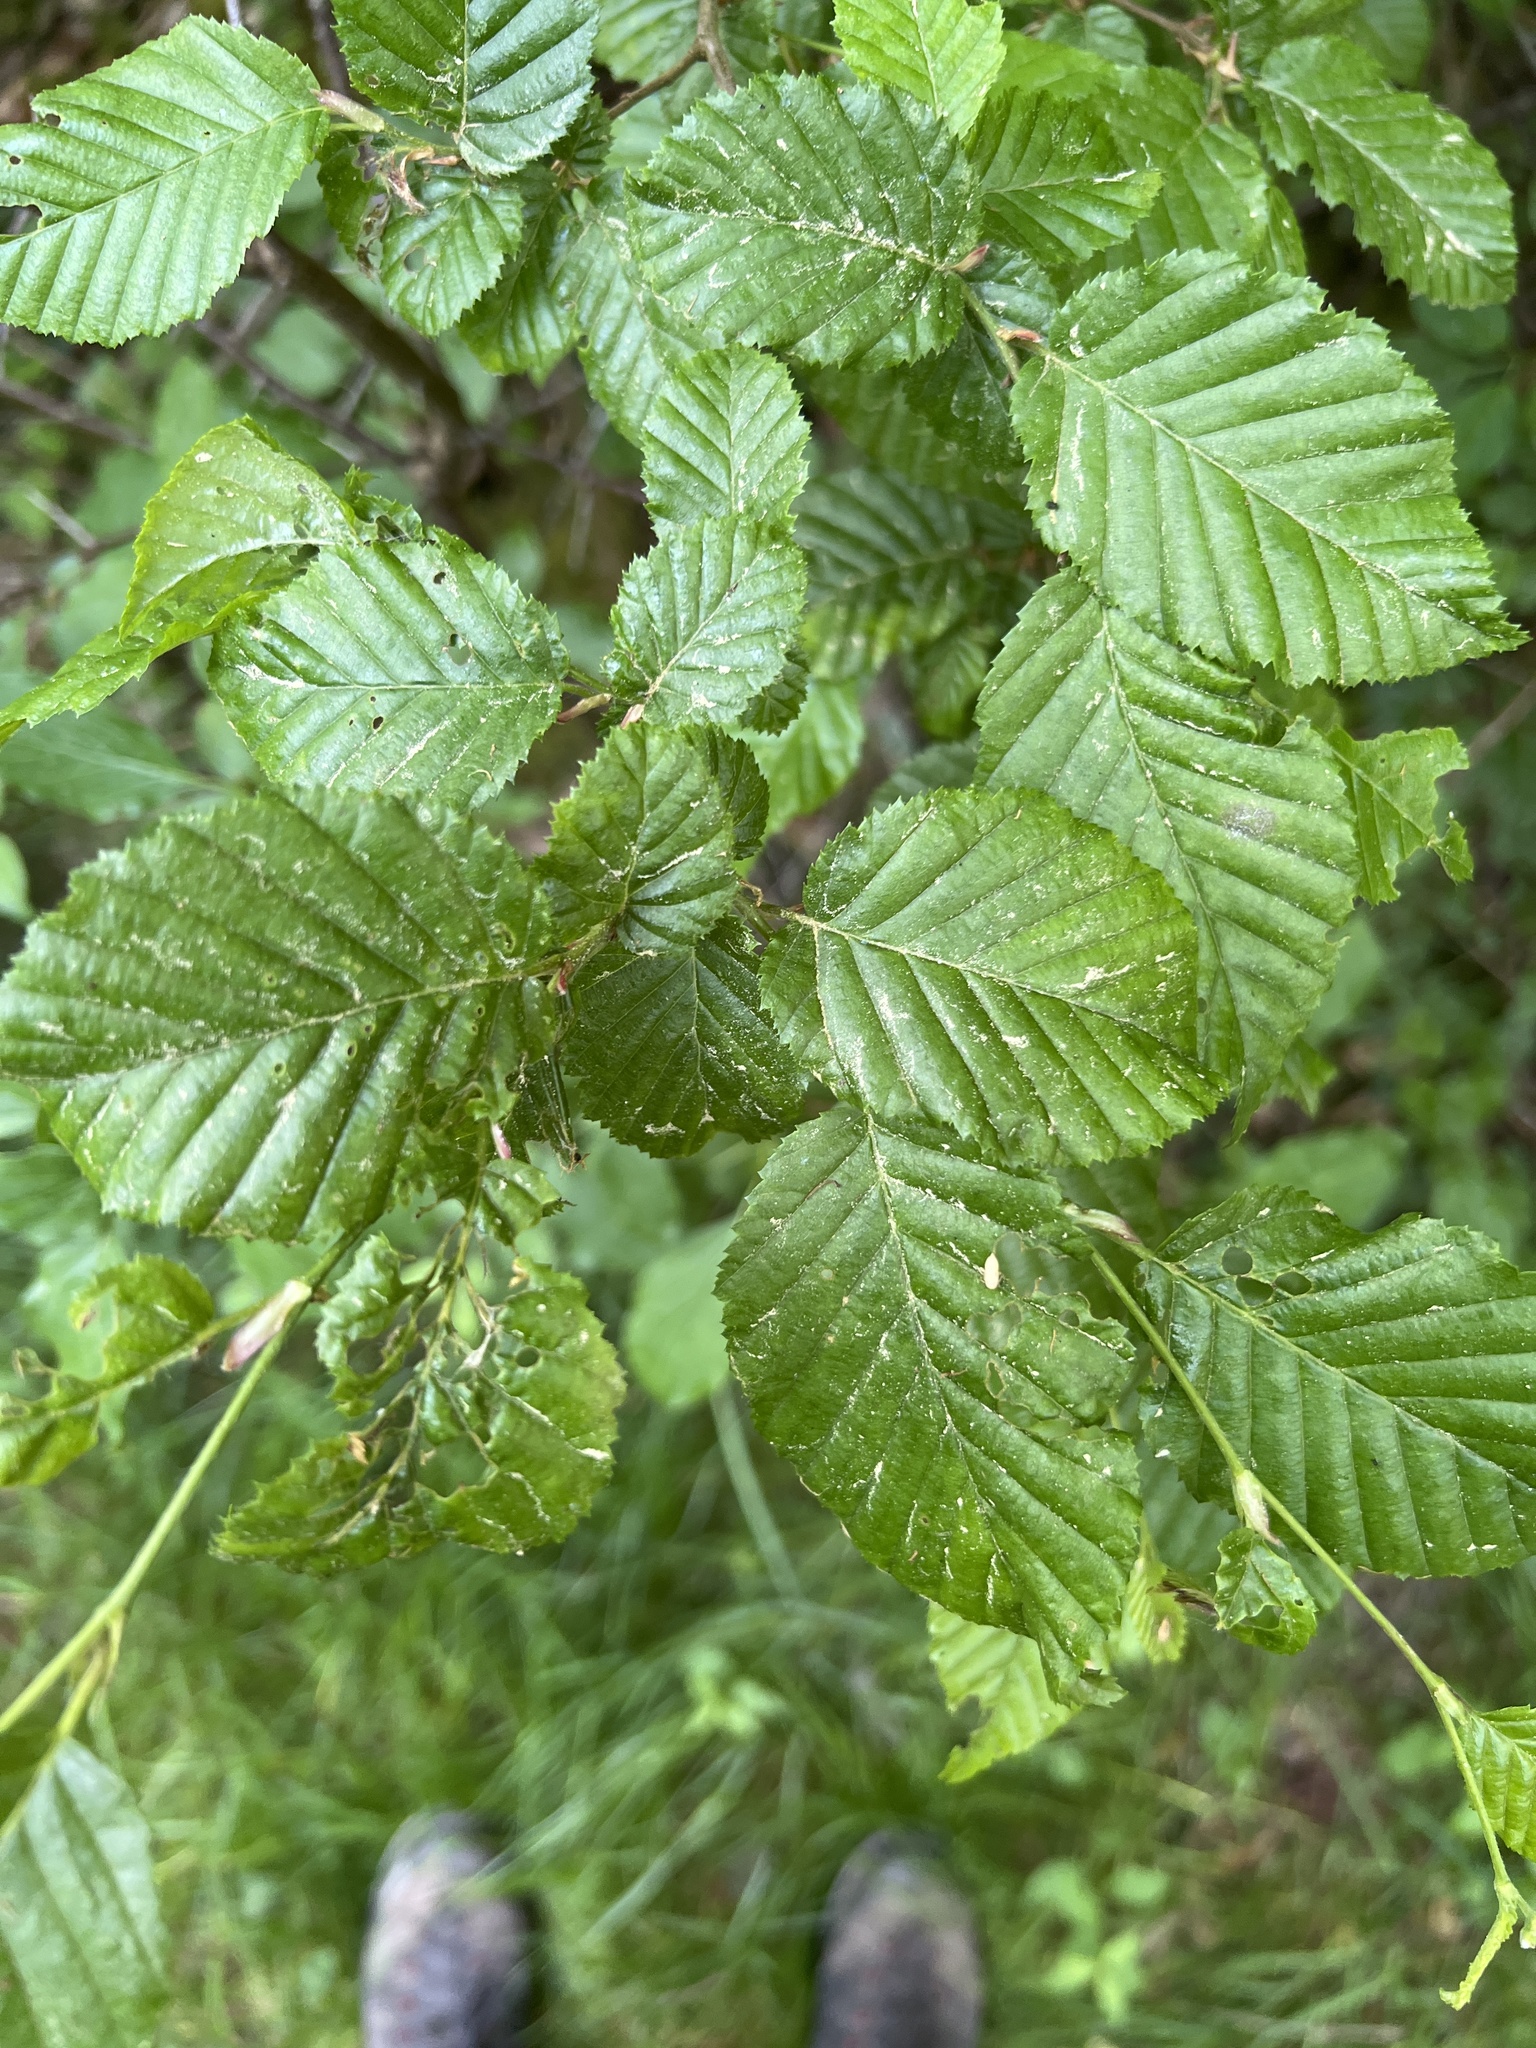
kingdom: Plantae
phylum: Tracheophyta
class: Magnoliopsida
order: Fagales
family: Betulaceae
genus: Carpinus
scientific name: Carpinus betulus
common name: Hornbeam
